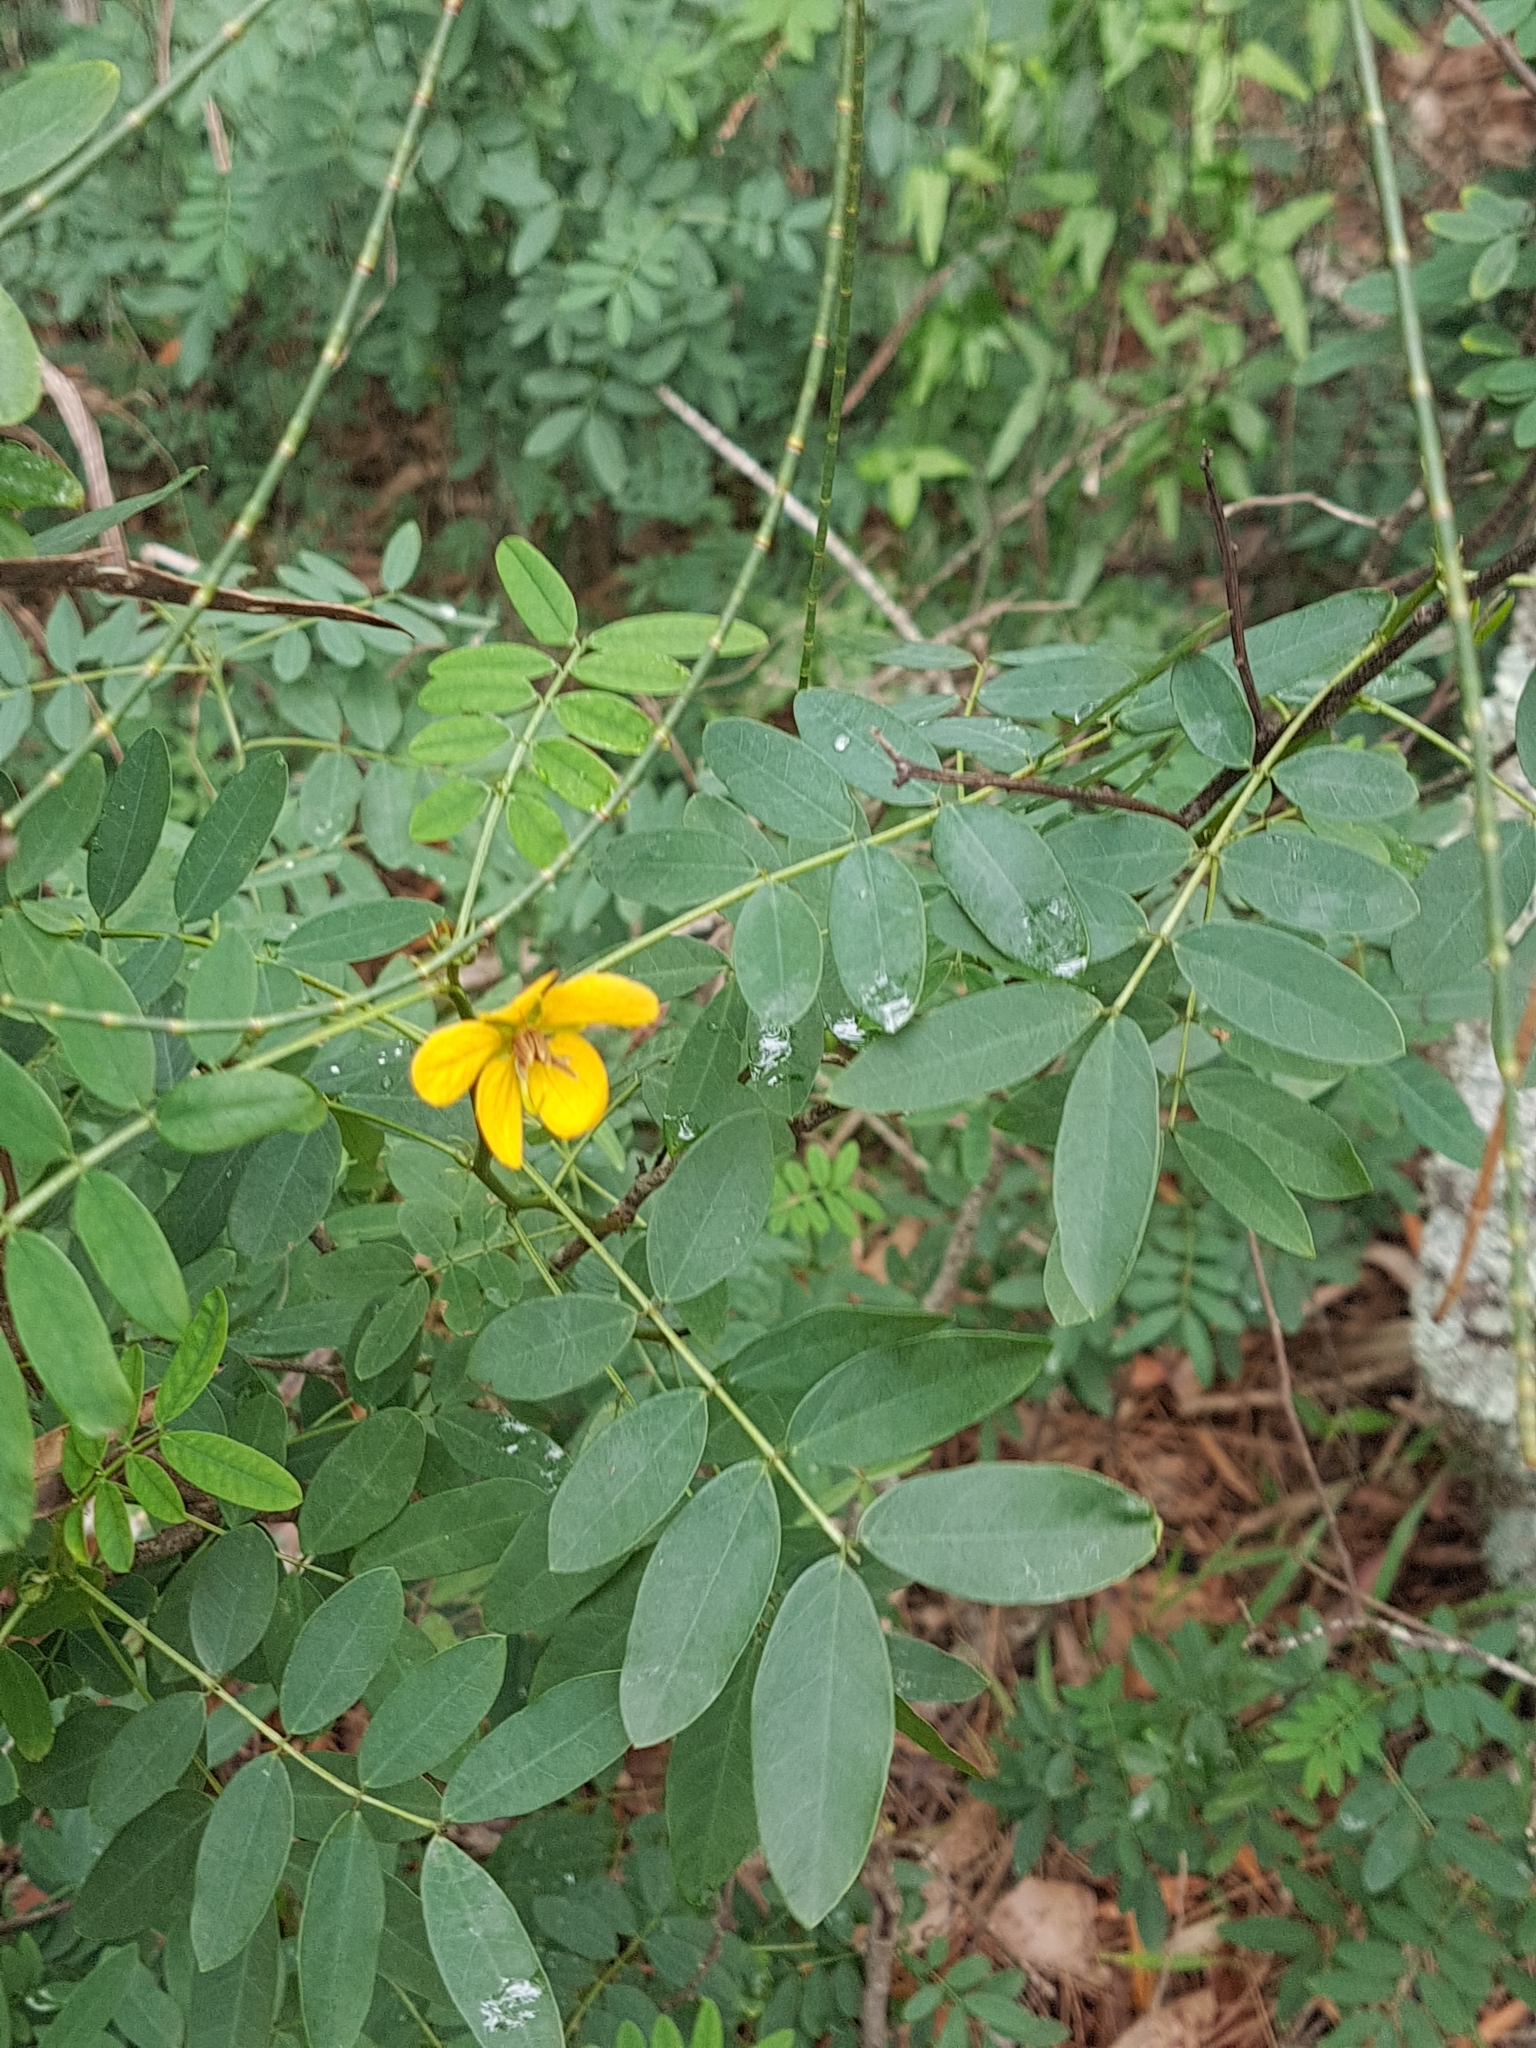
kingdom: Plantae
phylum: Tracheophyta
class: Magnoliopsida
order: Fabales
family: Fabaceae
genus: Senna
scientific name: Senna acclinis
